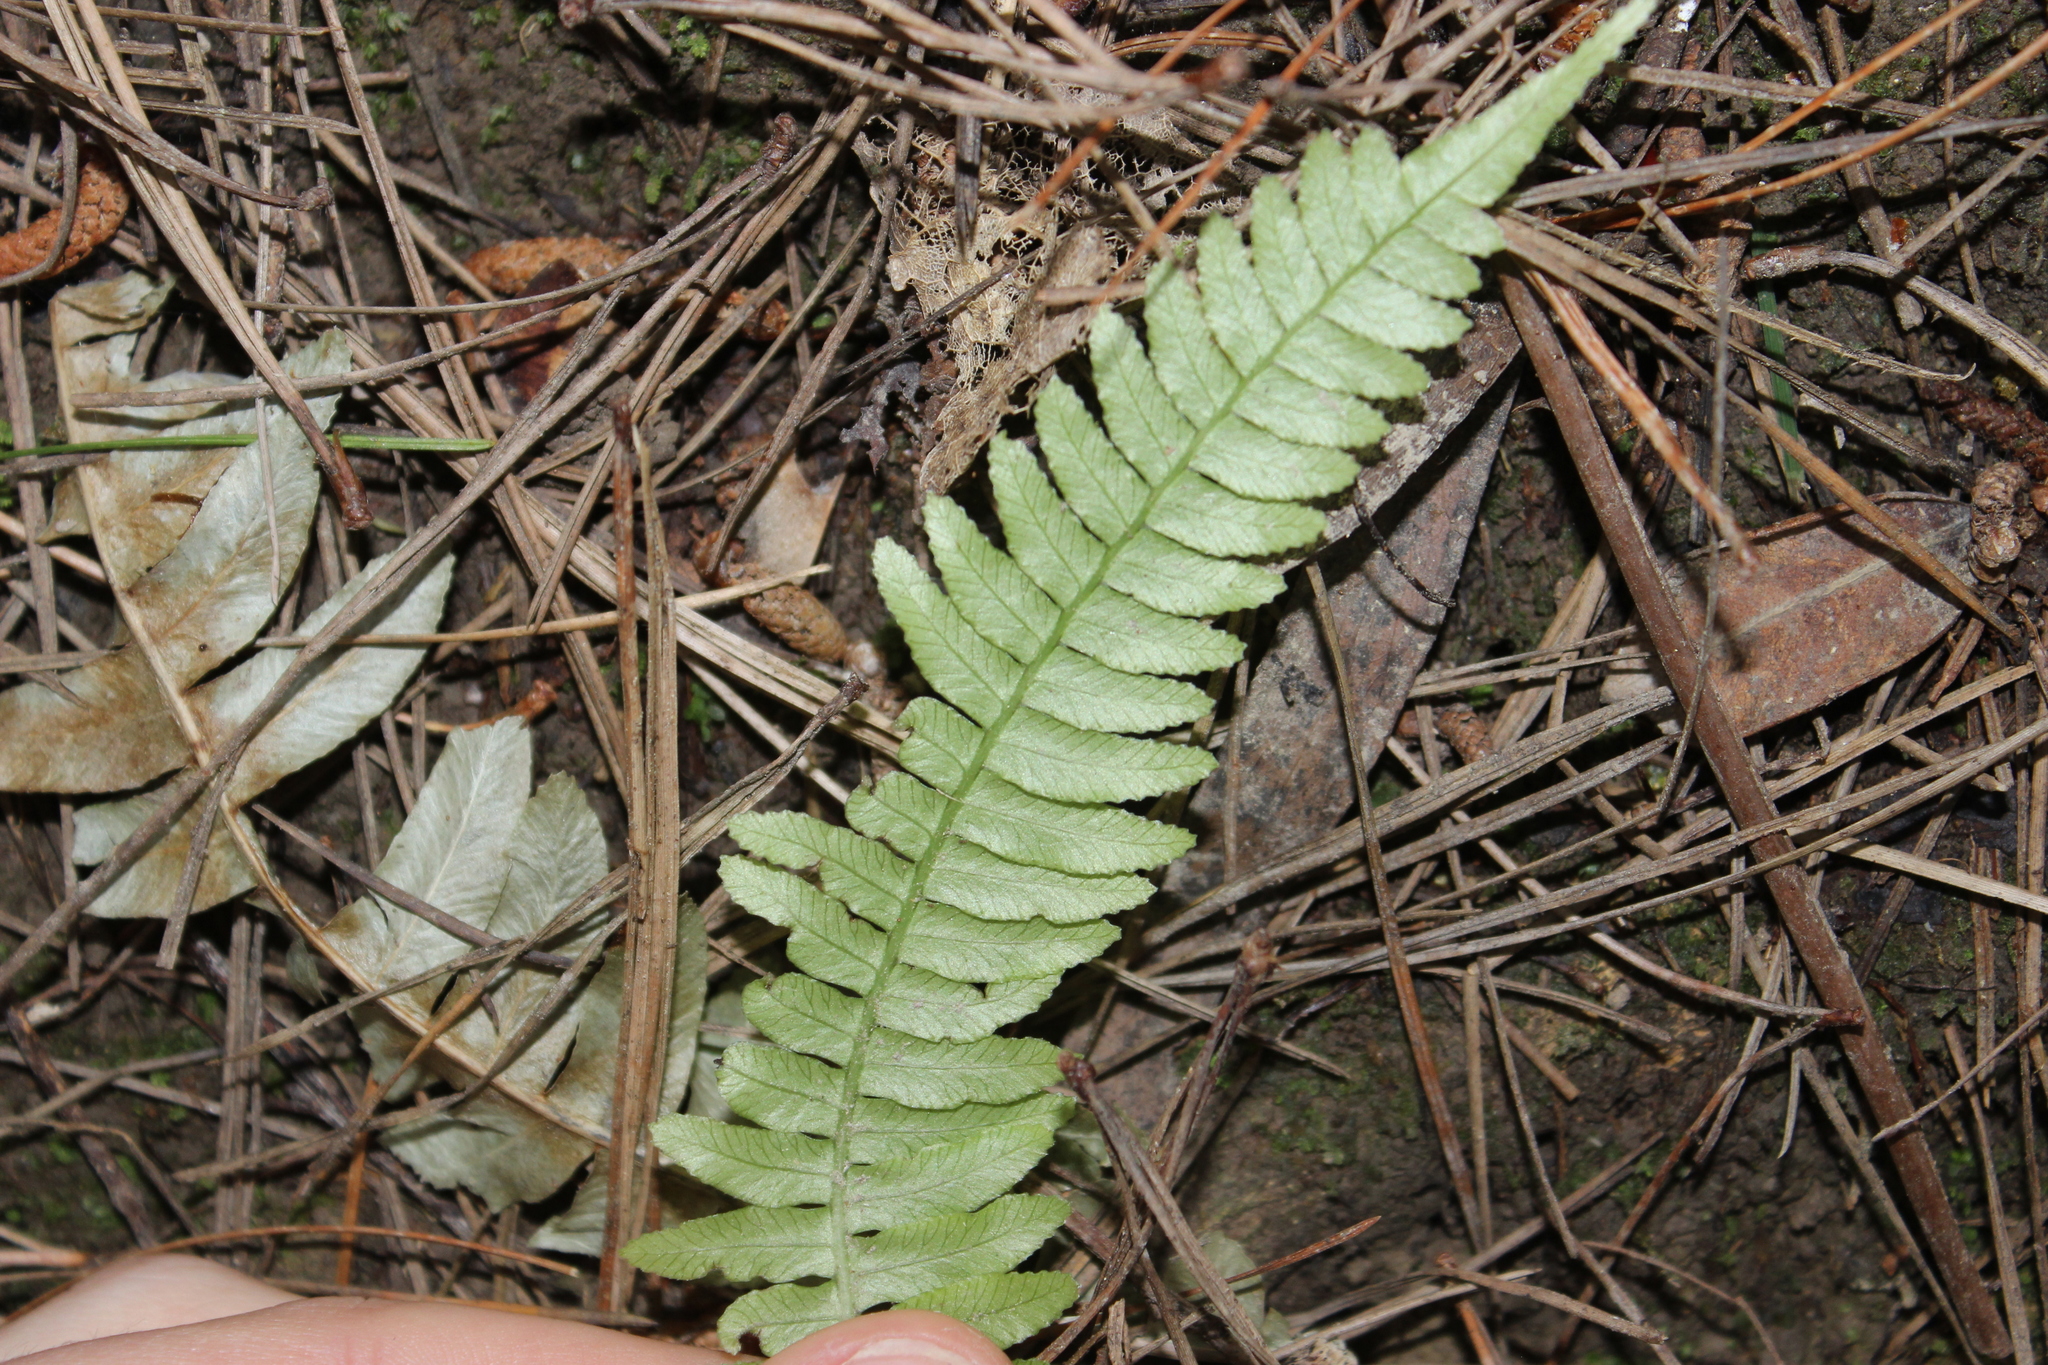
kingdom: Plantae
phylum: Tracheophyta
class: Polypodiopsida
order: Polypodiales
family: Blechnaceae
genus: Austroblechnum
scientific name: Austroblechnum lanceolatum
